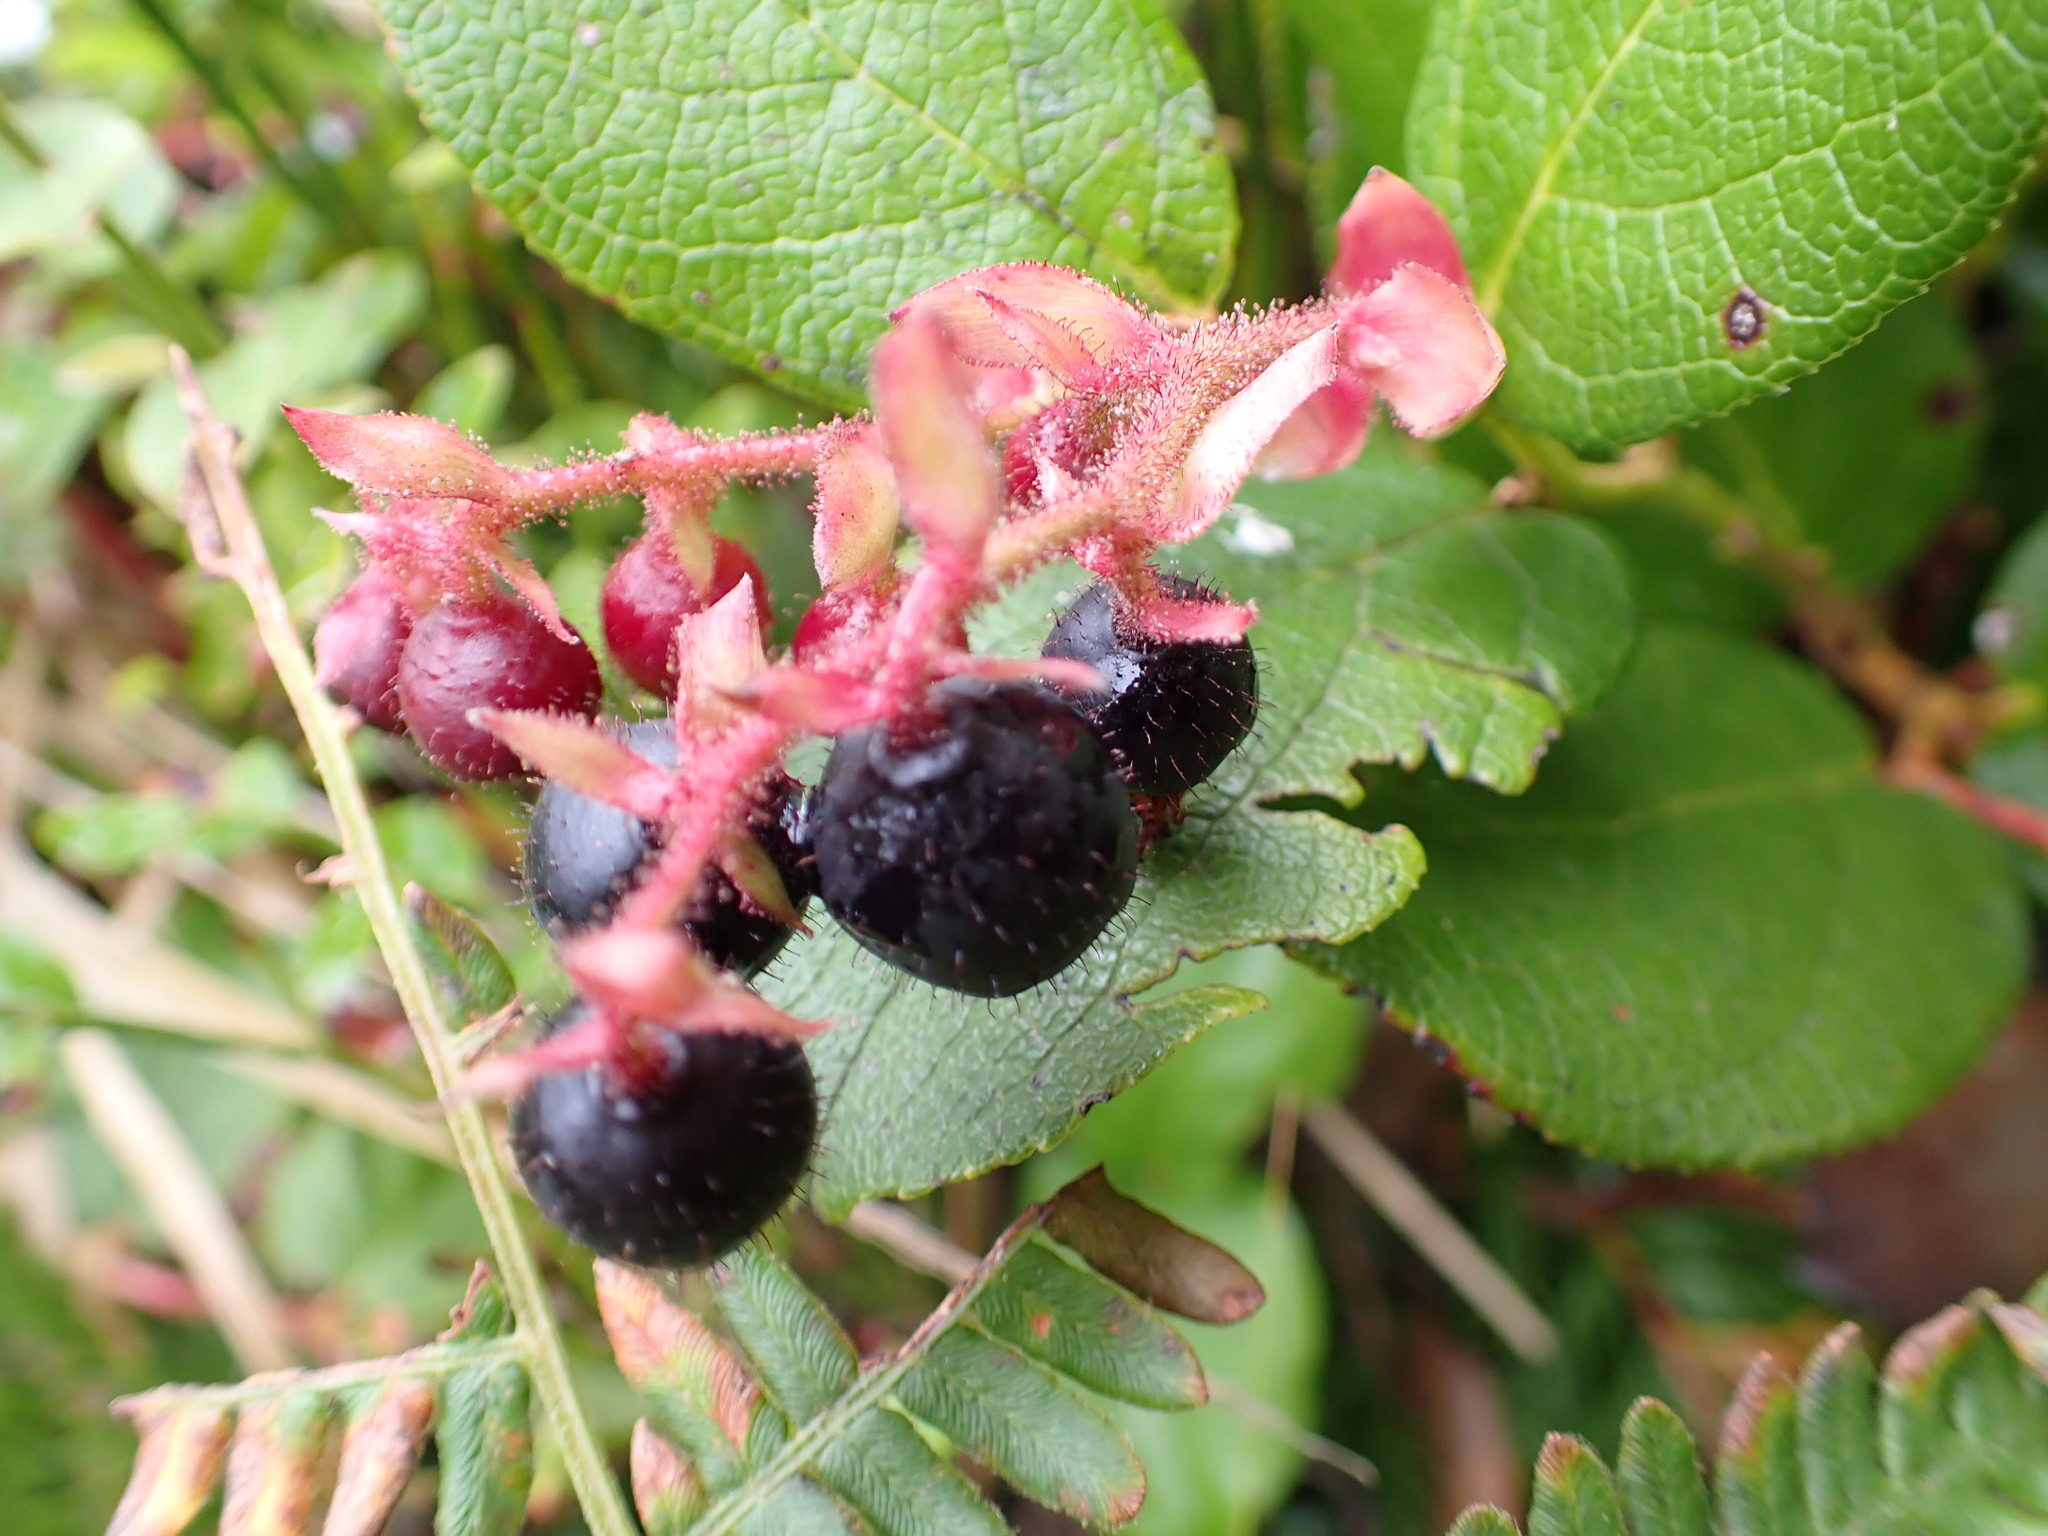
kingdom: Plantae
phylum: Tracheophyta
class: Magnoliopsida
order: Ericales
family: Ericaceae
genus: Gaultheria
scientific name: Gaultheria shallon
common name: Shallon
